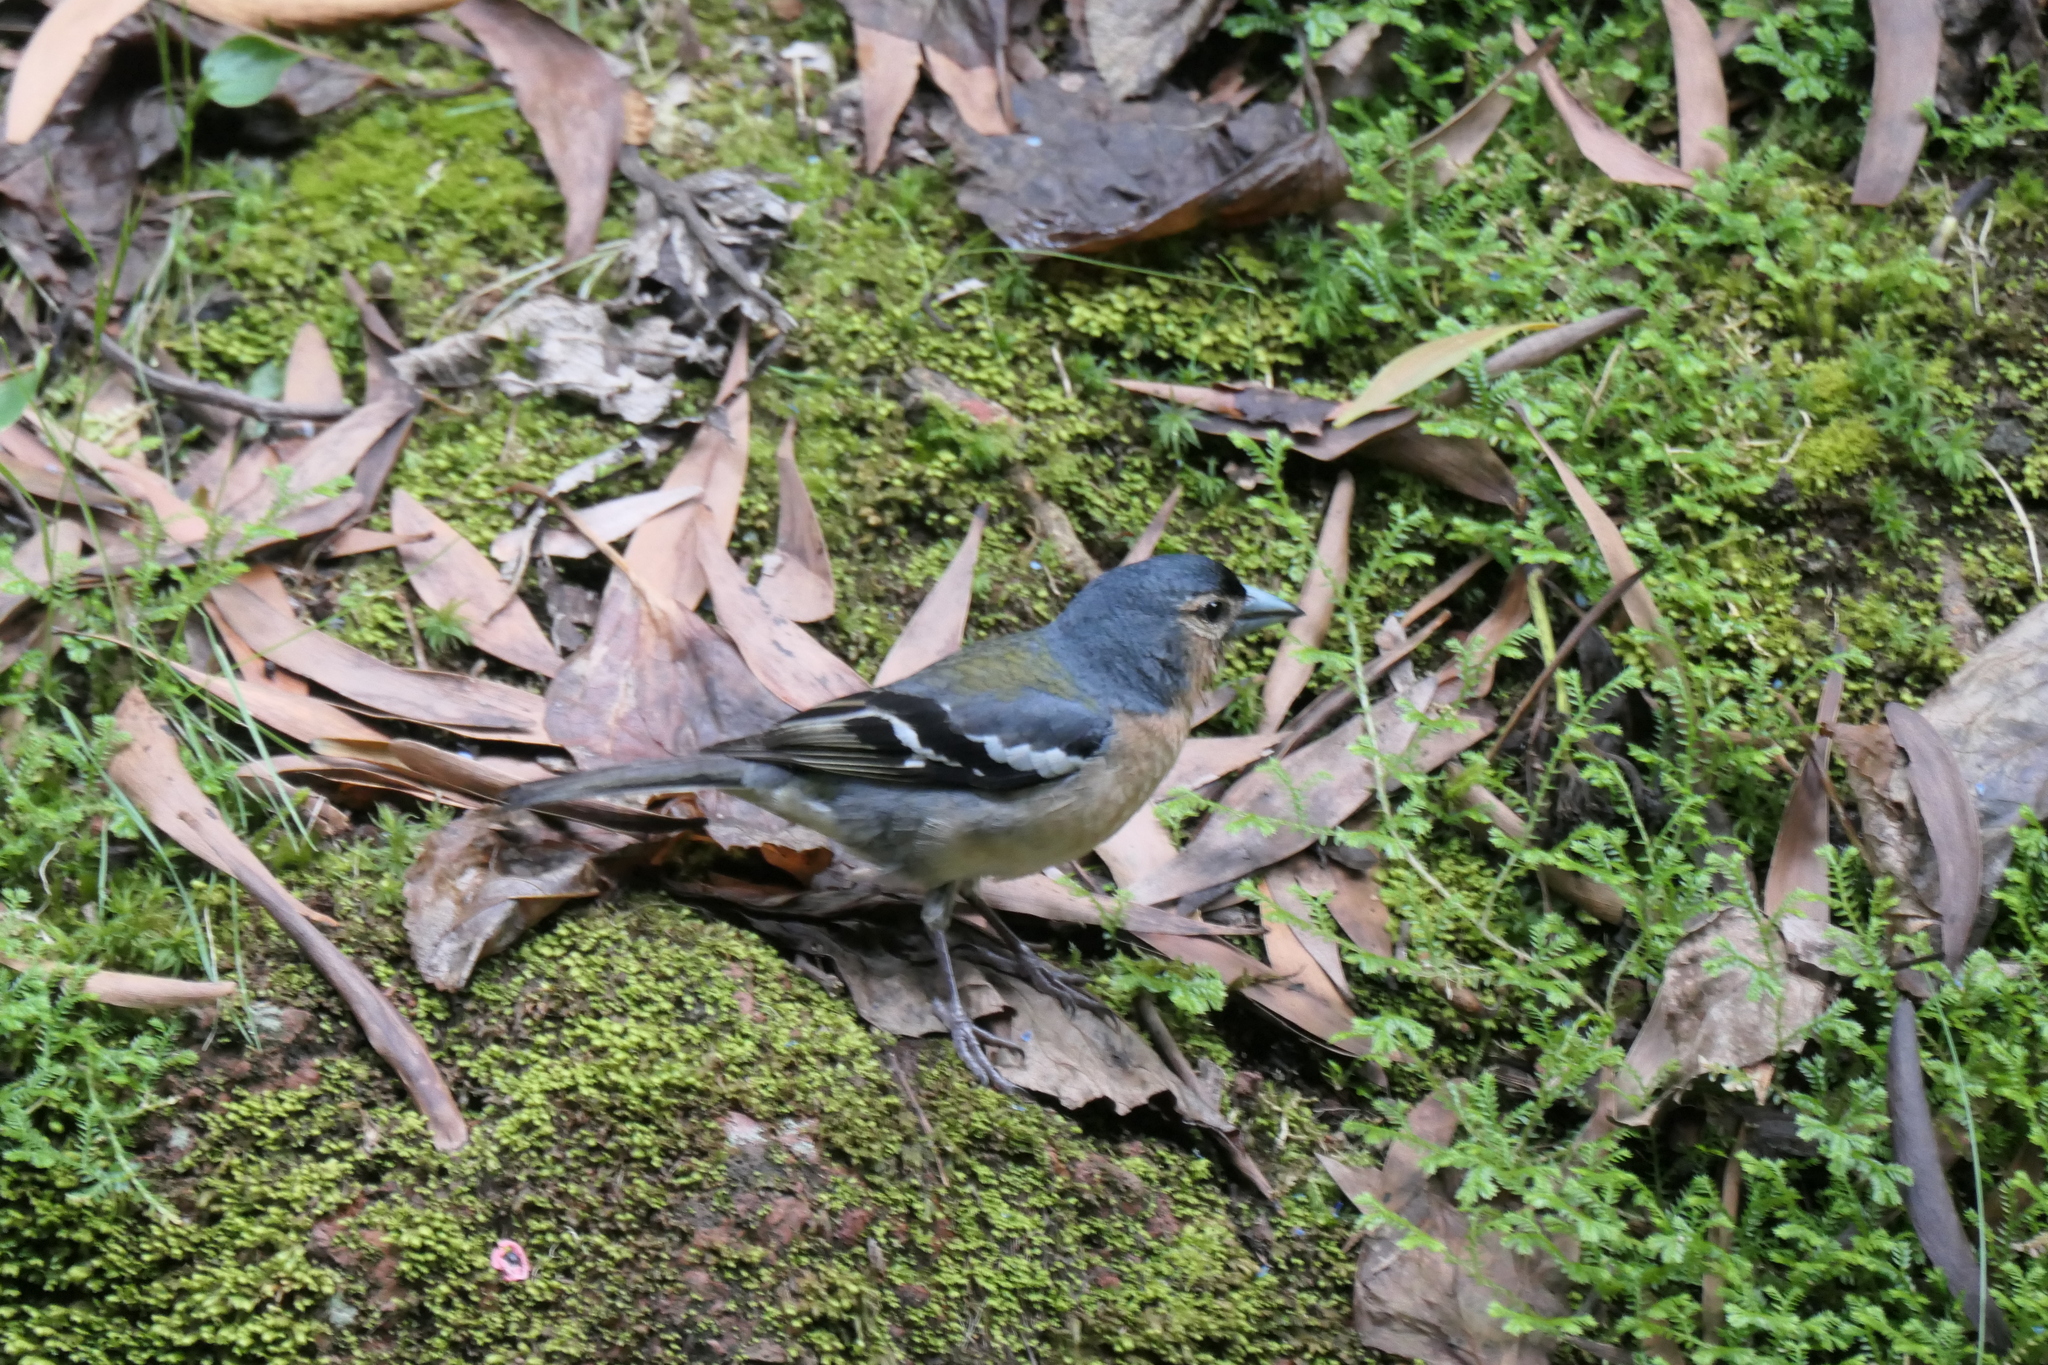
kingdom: Animalia
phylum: Chordata
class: Aves
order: Passeriformes
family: Fringillidae
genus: Fringilla
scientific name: Fringilla moreletti
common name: Azores chaffinch
